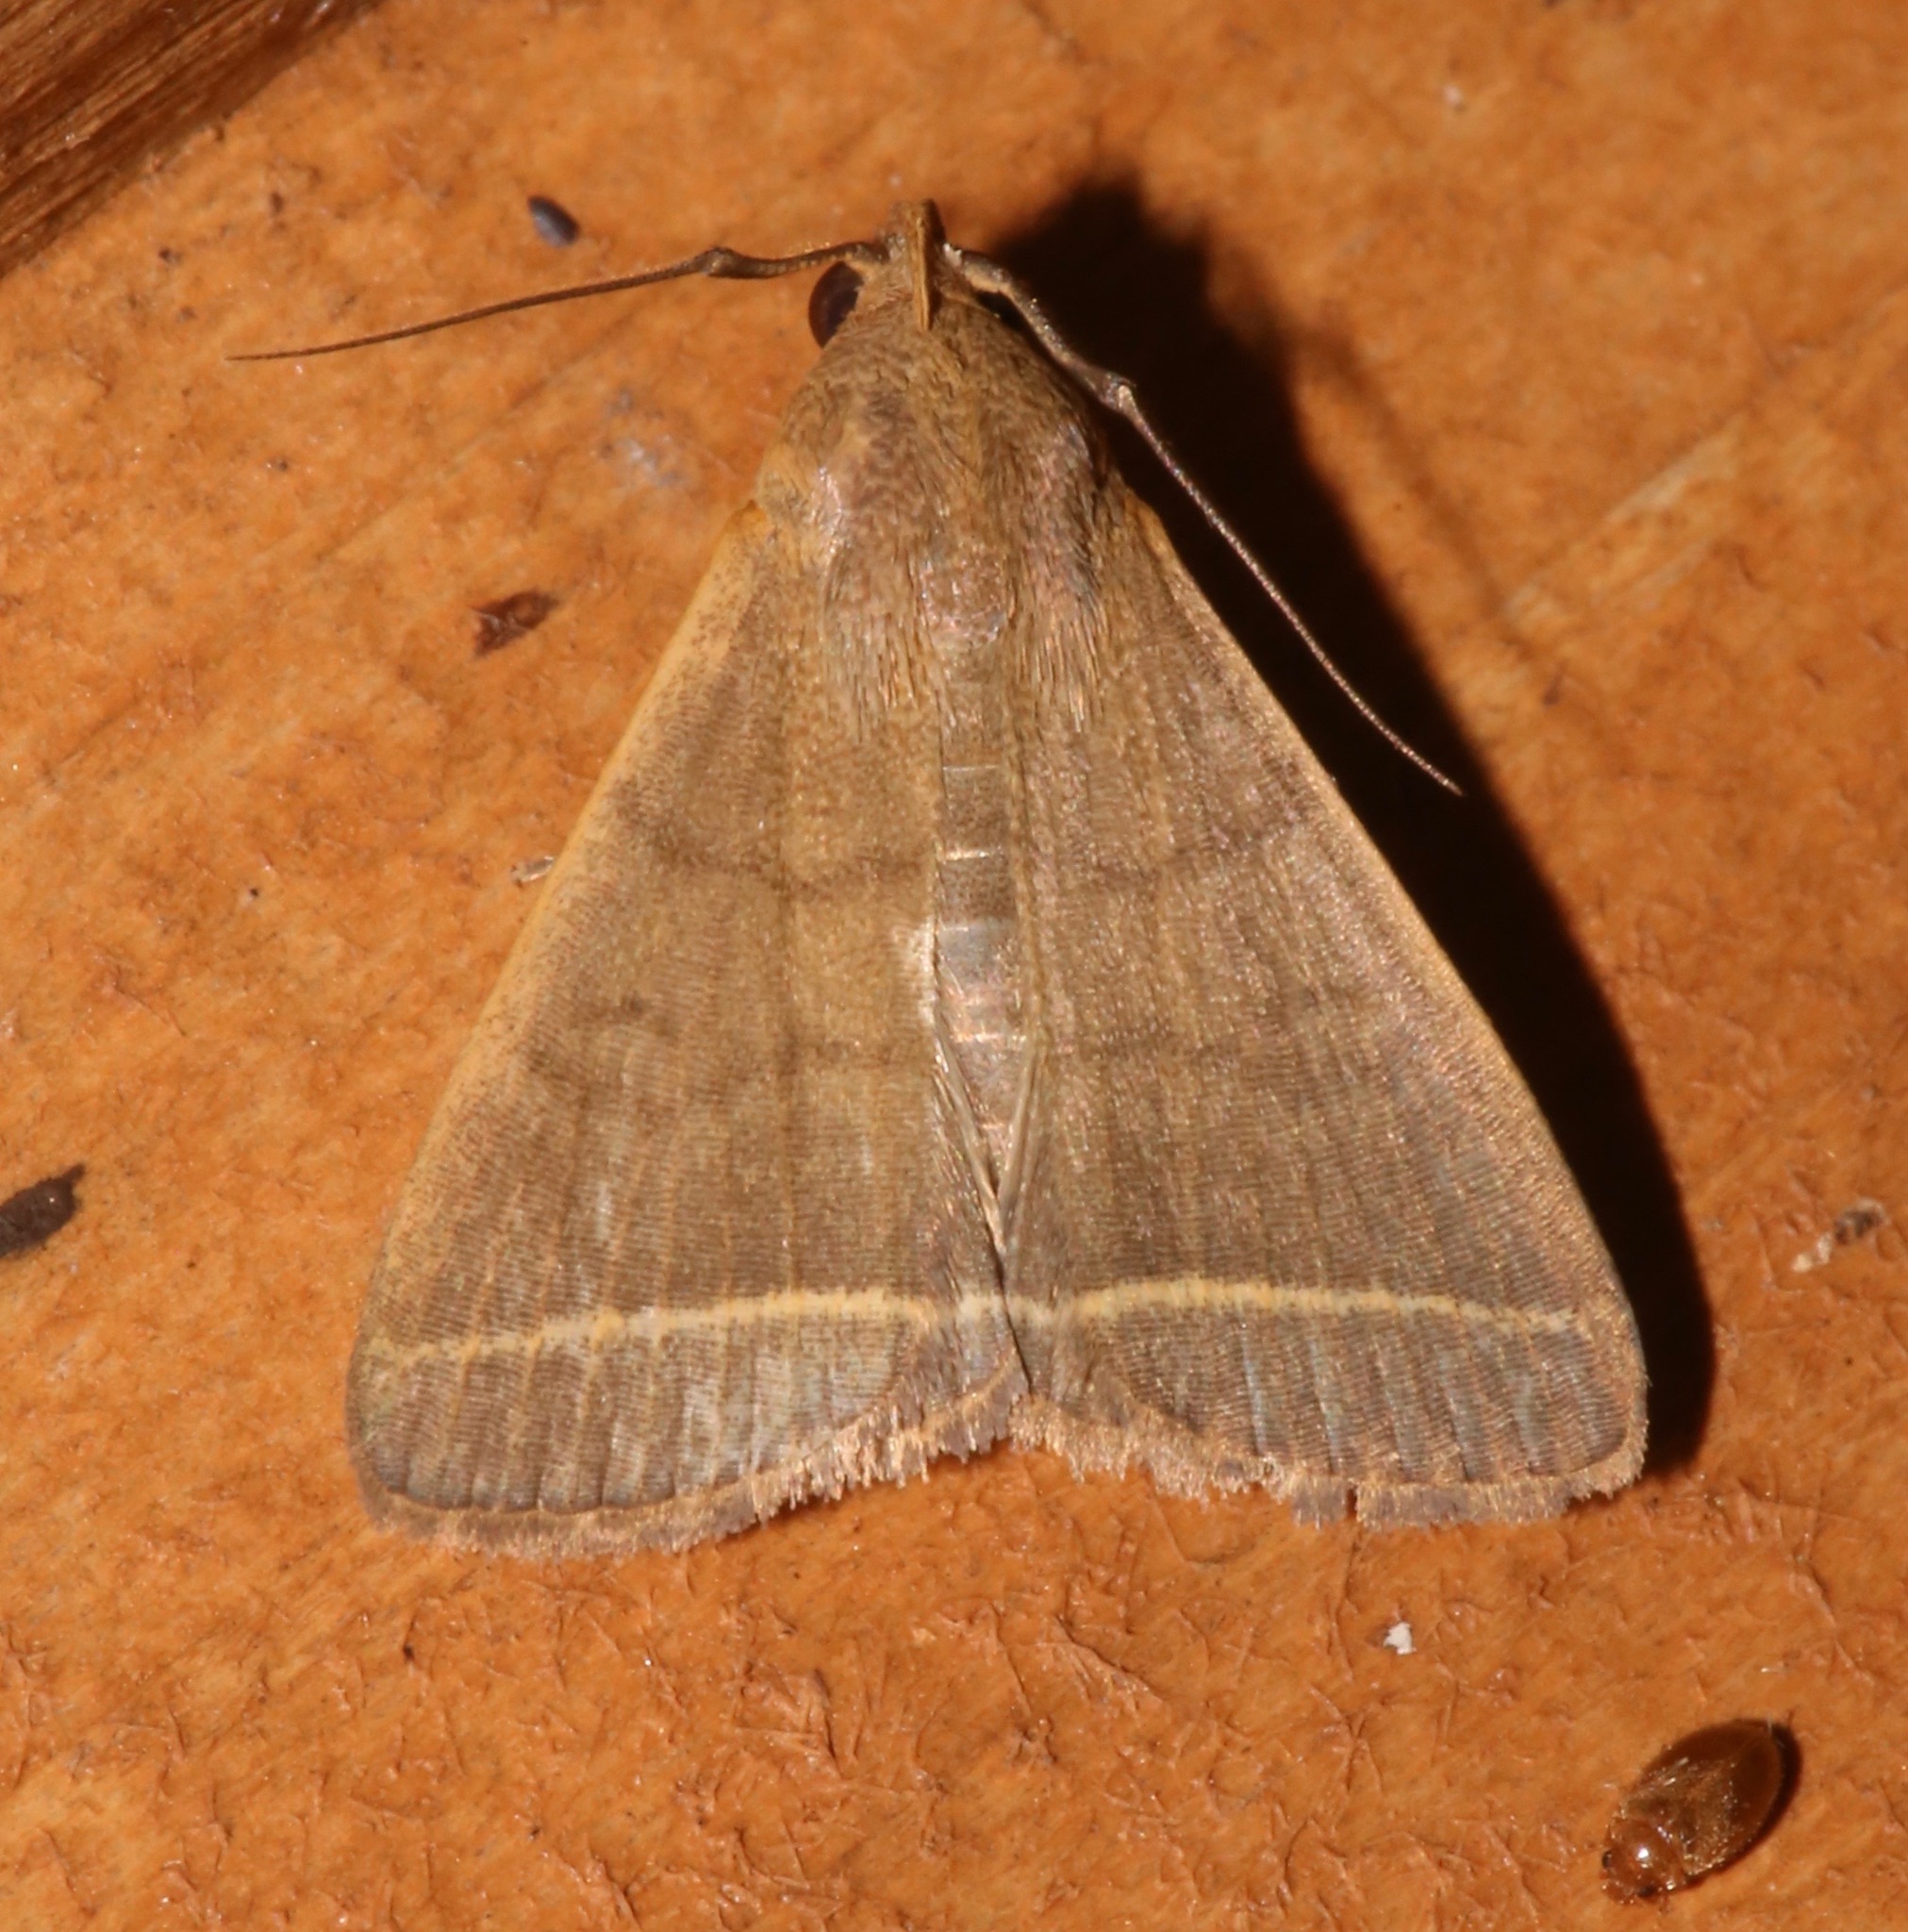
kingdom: Animalia
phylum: Arthropoda
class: Insecta
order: Lepidoptera
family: Erebidae
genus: Simplicia
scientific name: Simplicia cornicalis
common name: Tiki hut litter moth
